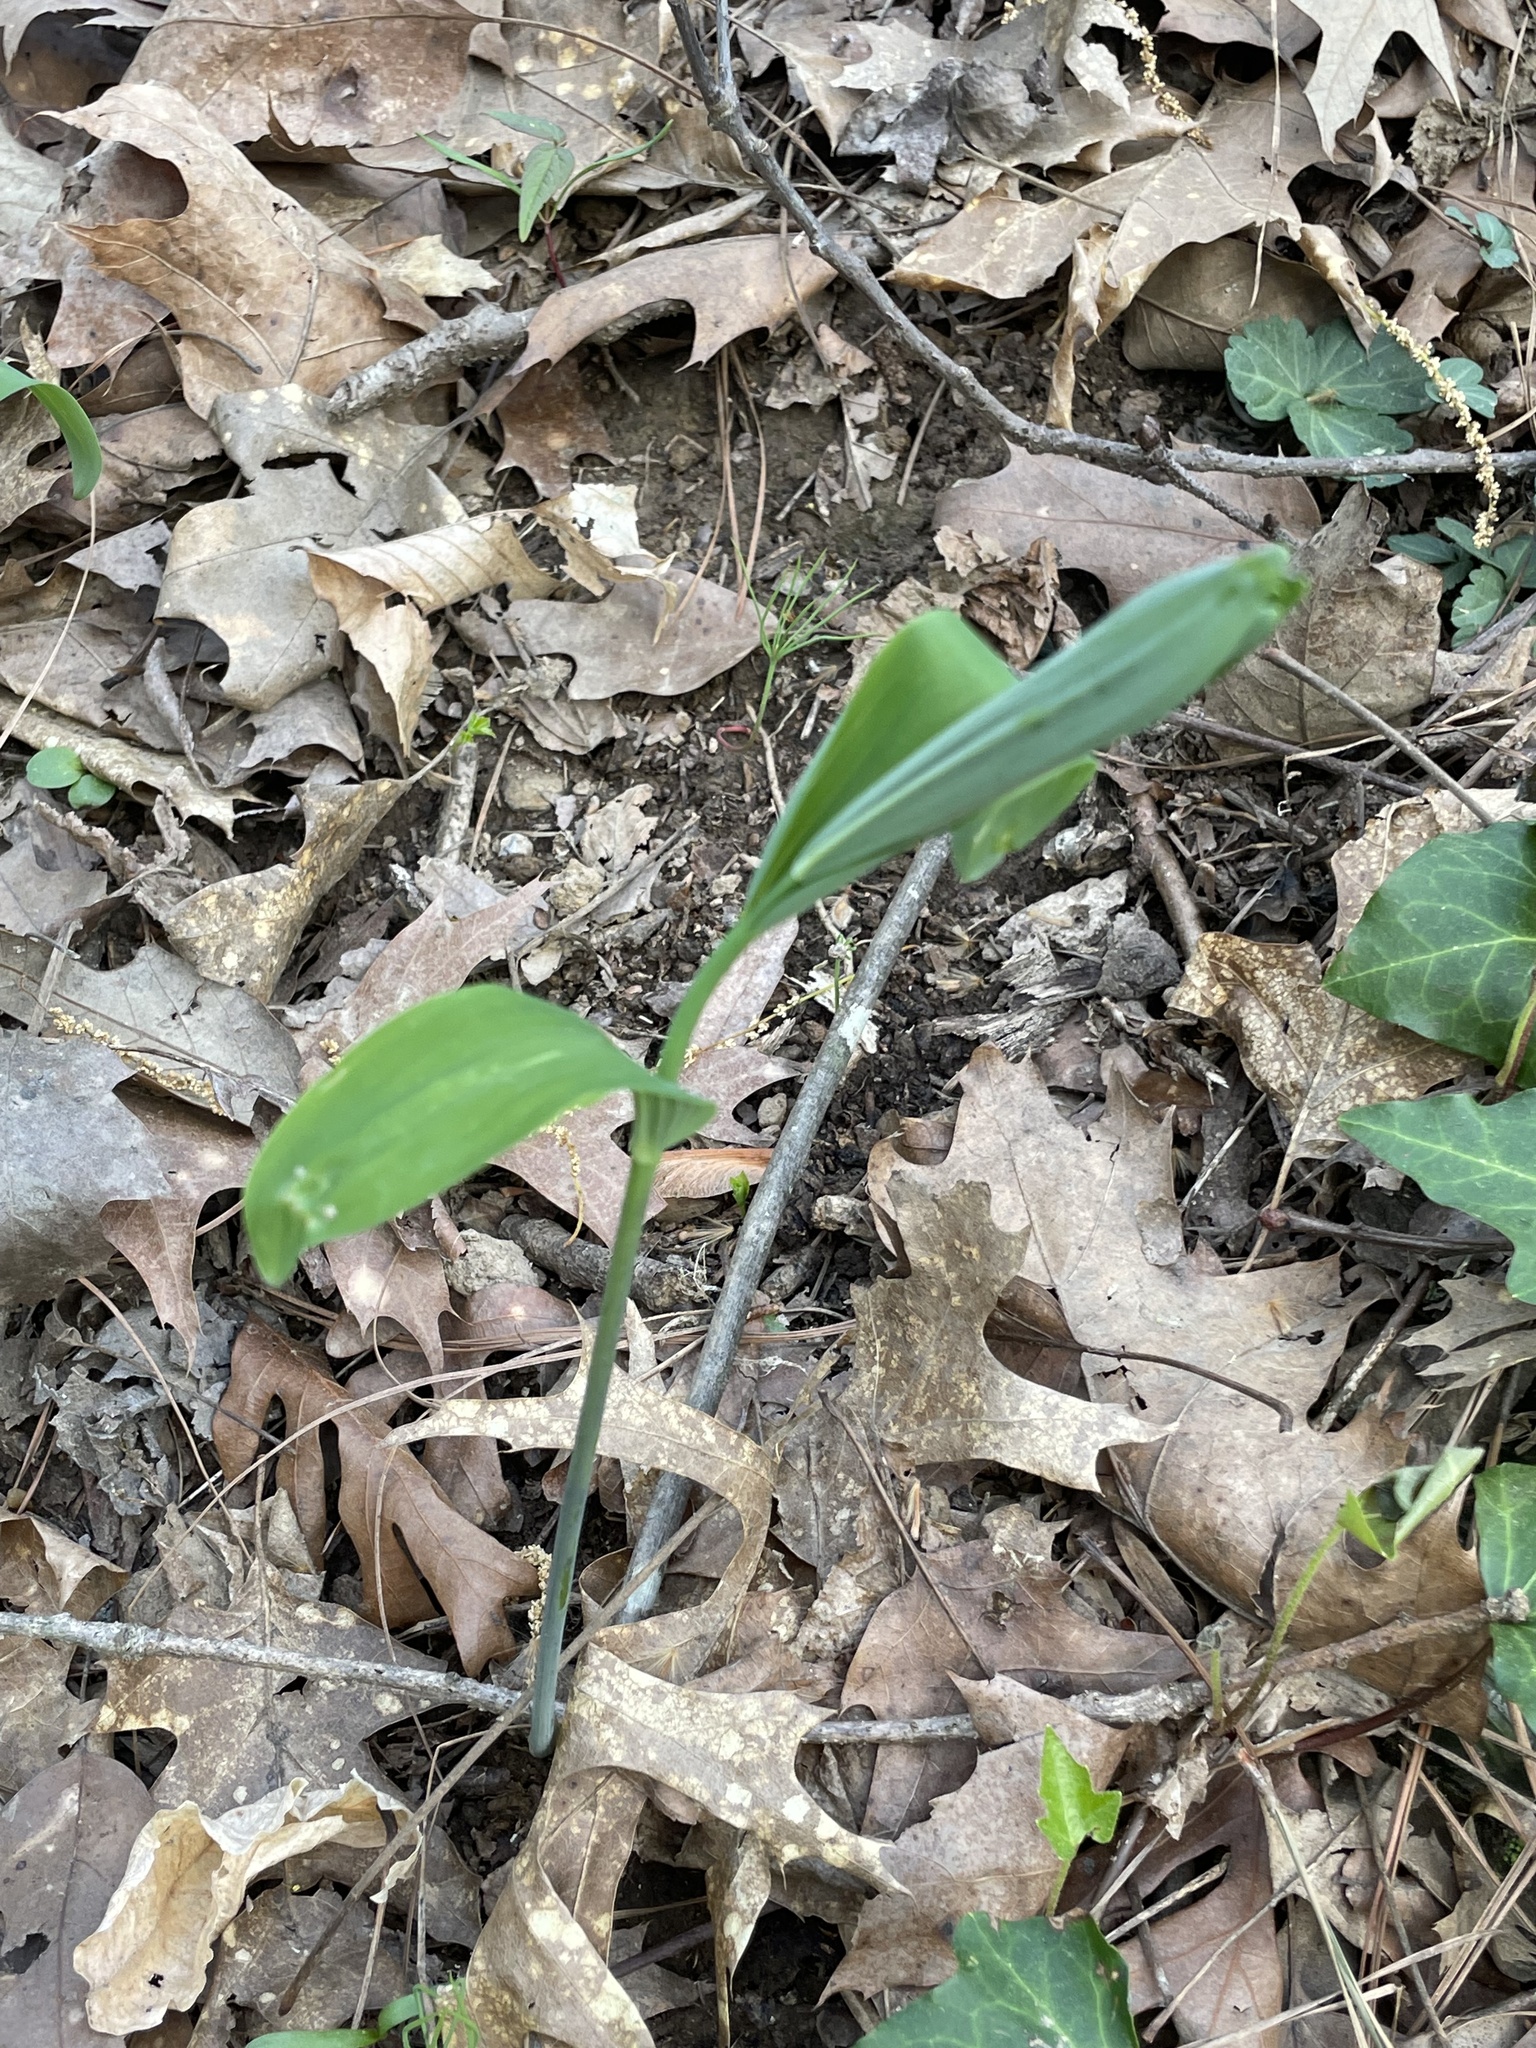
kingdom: Plantae
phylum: Tracheophyta
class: Liliopsida
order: Asparagales
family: Asparagaceae
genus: Polygonatum
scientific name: Polygonatum biflorum
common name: American solomon's-seal
